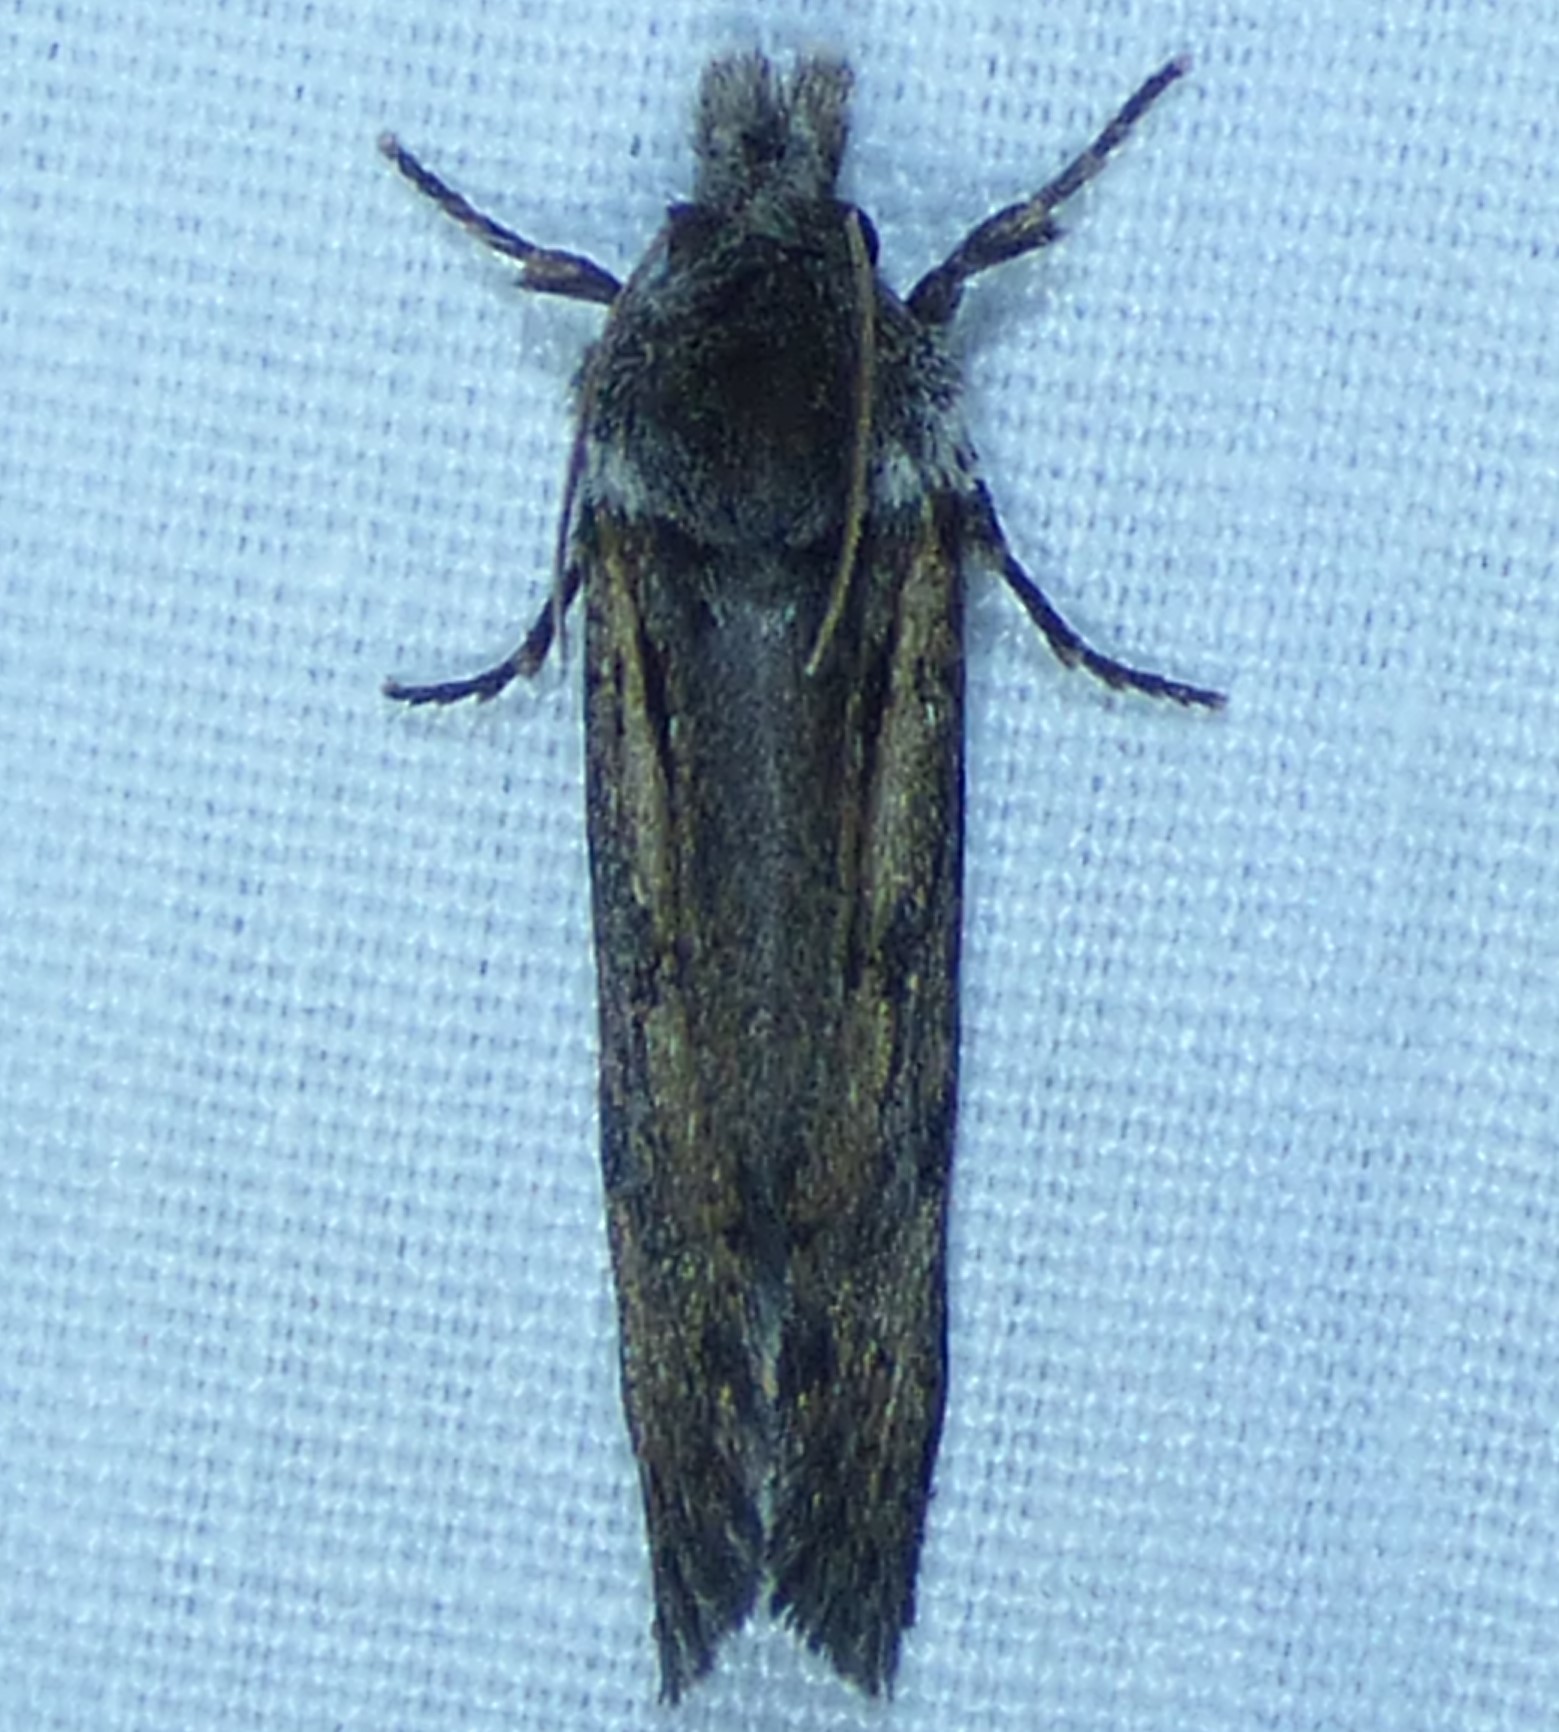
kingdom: Animalia
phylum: Arthropoda
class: Insecta
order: Lepidoptera
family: Tineidae
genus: Acrolophus
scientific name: Acrolophus popeanella
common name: Clemens' grass tubeworm moth
